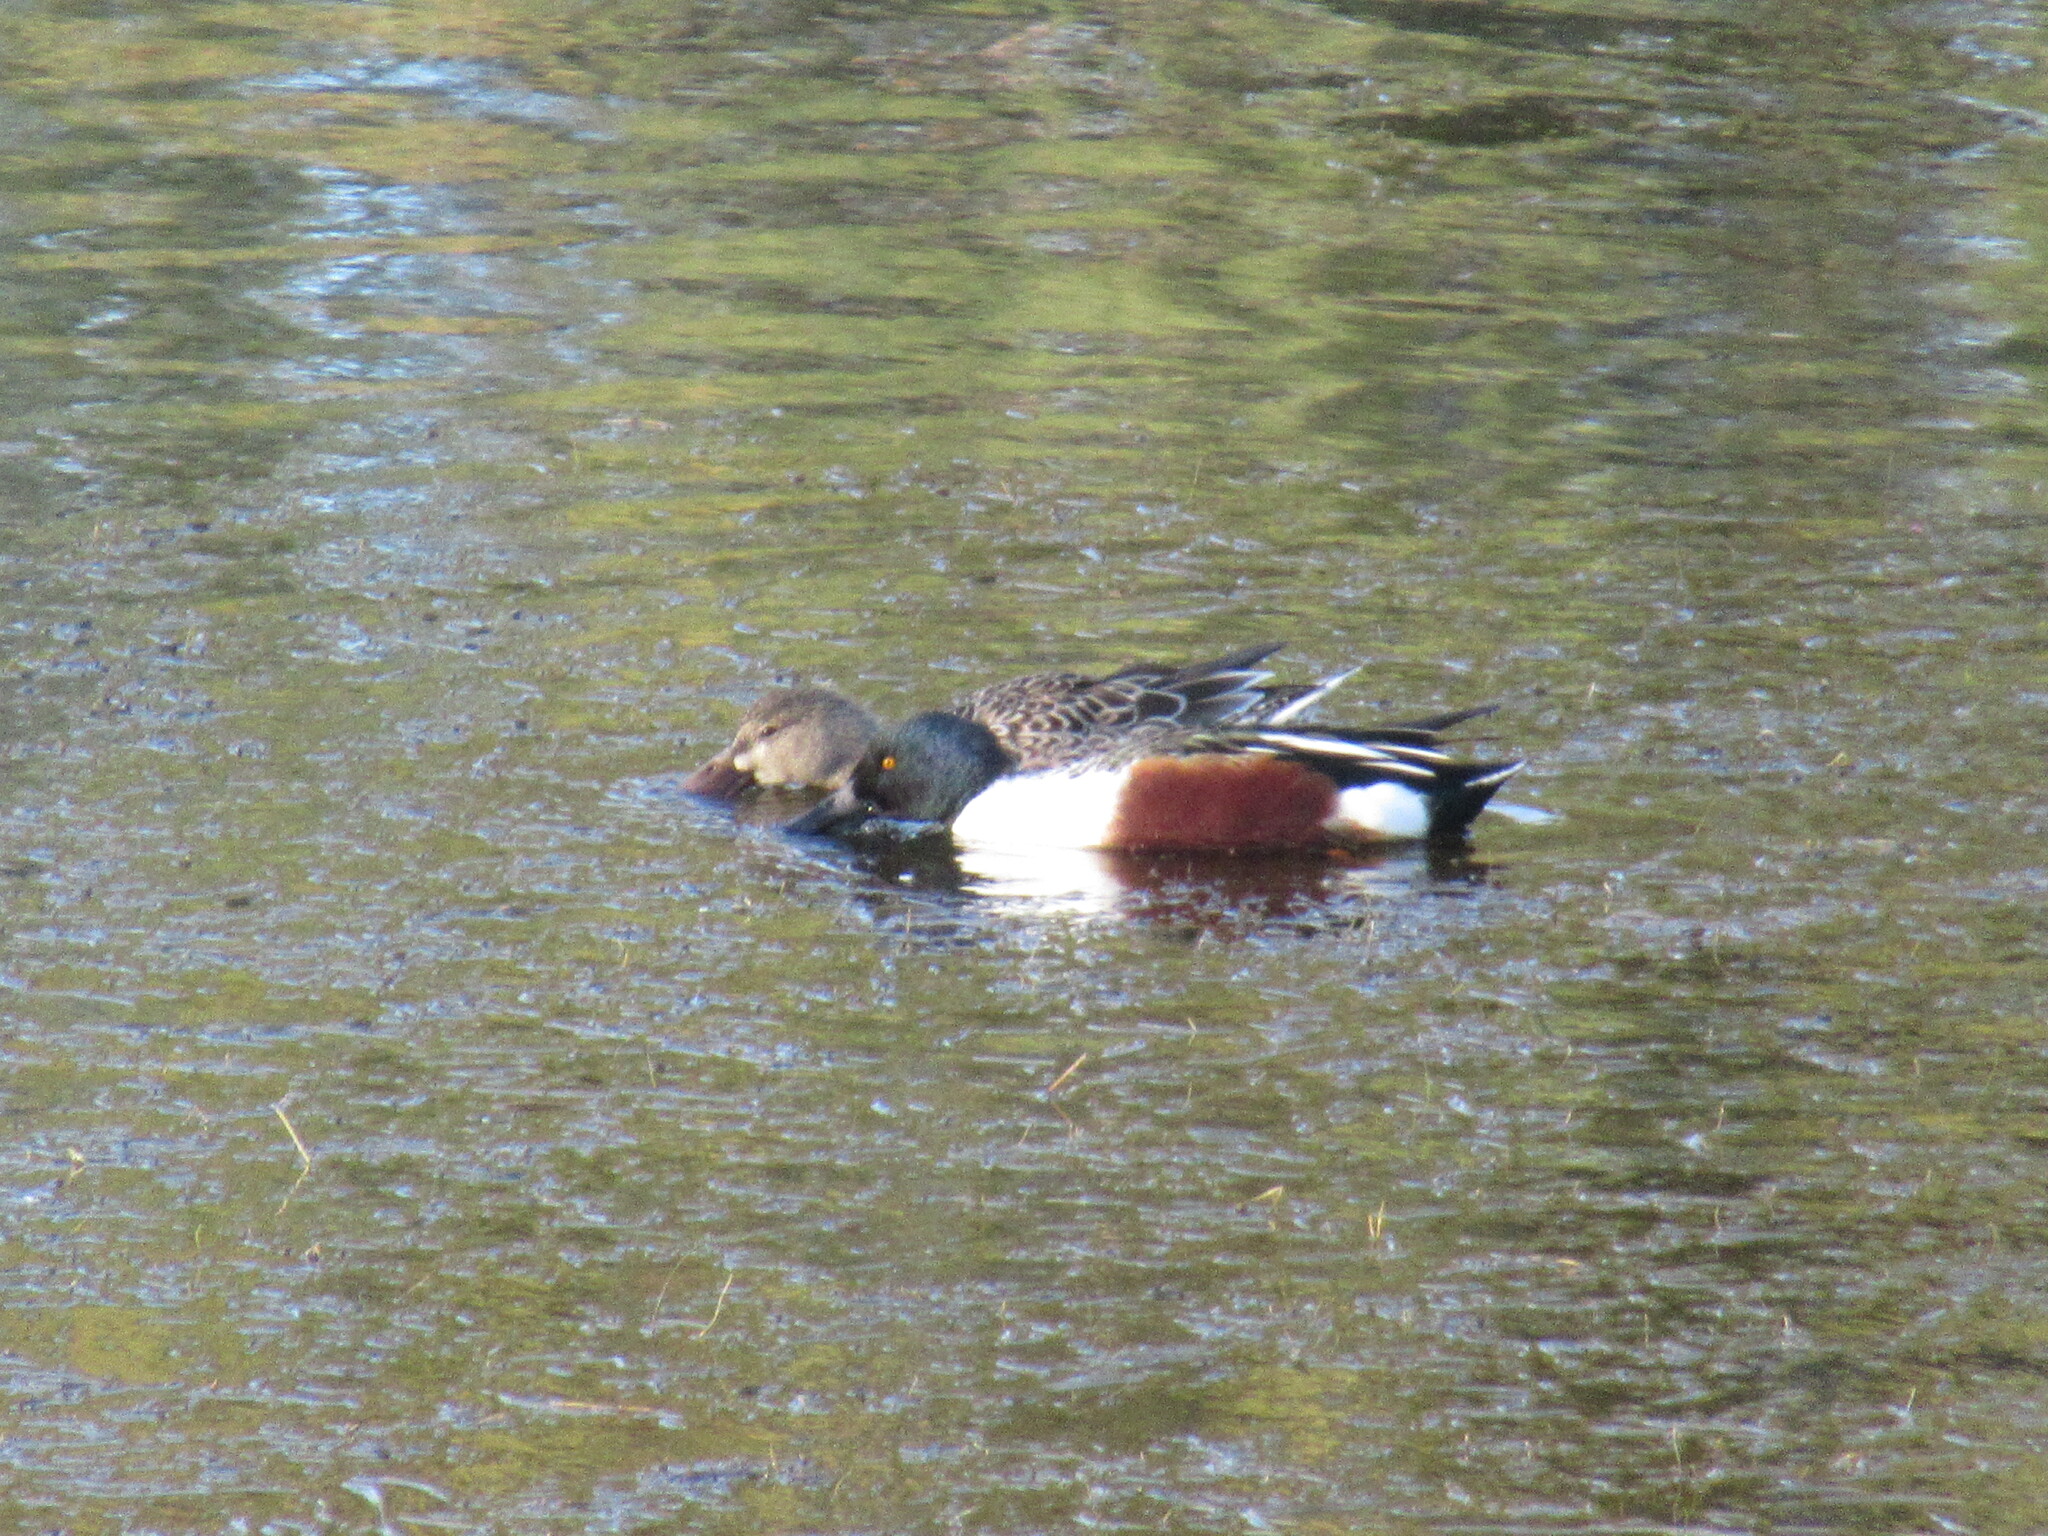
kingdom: Animalia
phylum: Chordata
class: Aves
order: Anseriformes
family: Anatidae
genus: Spatula
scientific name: Spatula clypeata
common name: Northern shoveler
